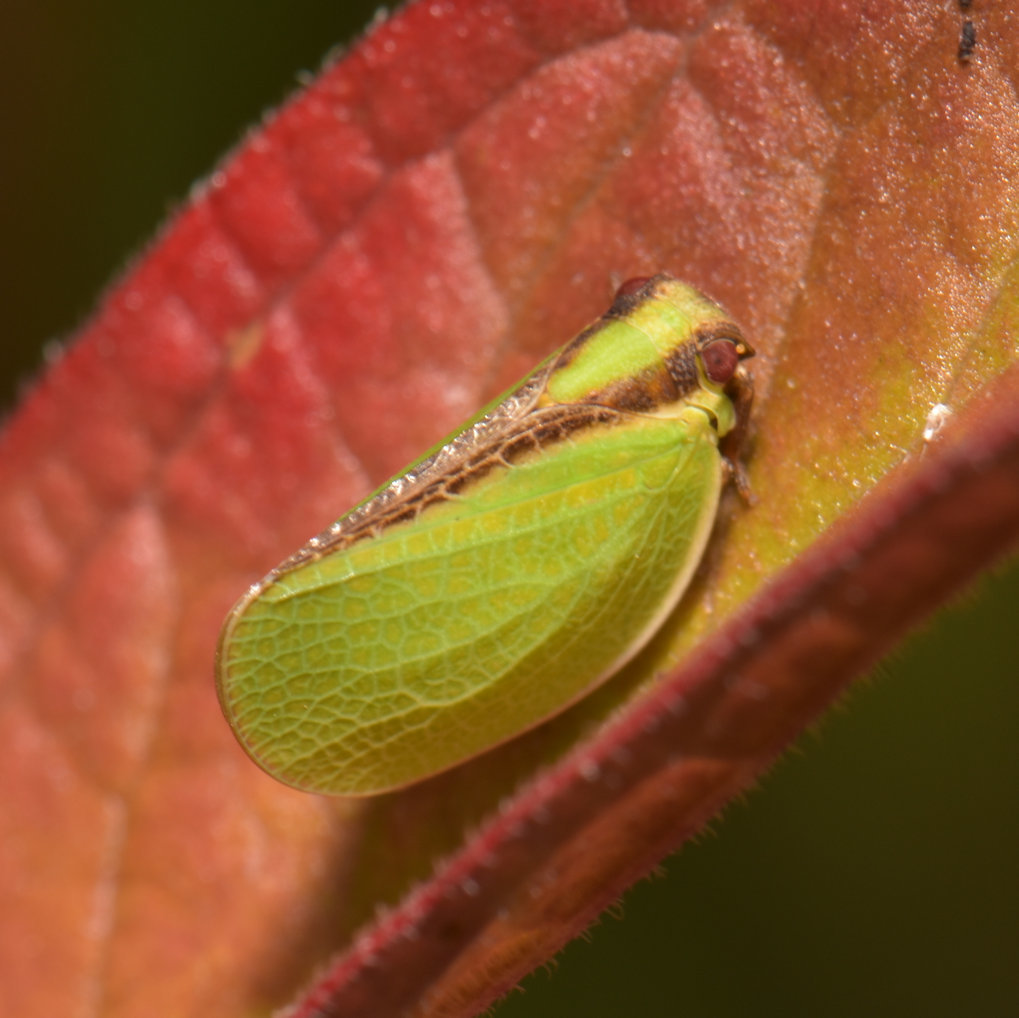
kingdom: Animalia
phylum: Arthropoda
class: Insecta
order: Hemiptera
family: Acanaloniidae
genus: Acanalonia
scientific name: Acanalonia bivittata
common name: Two-striped planthopper
